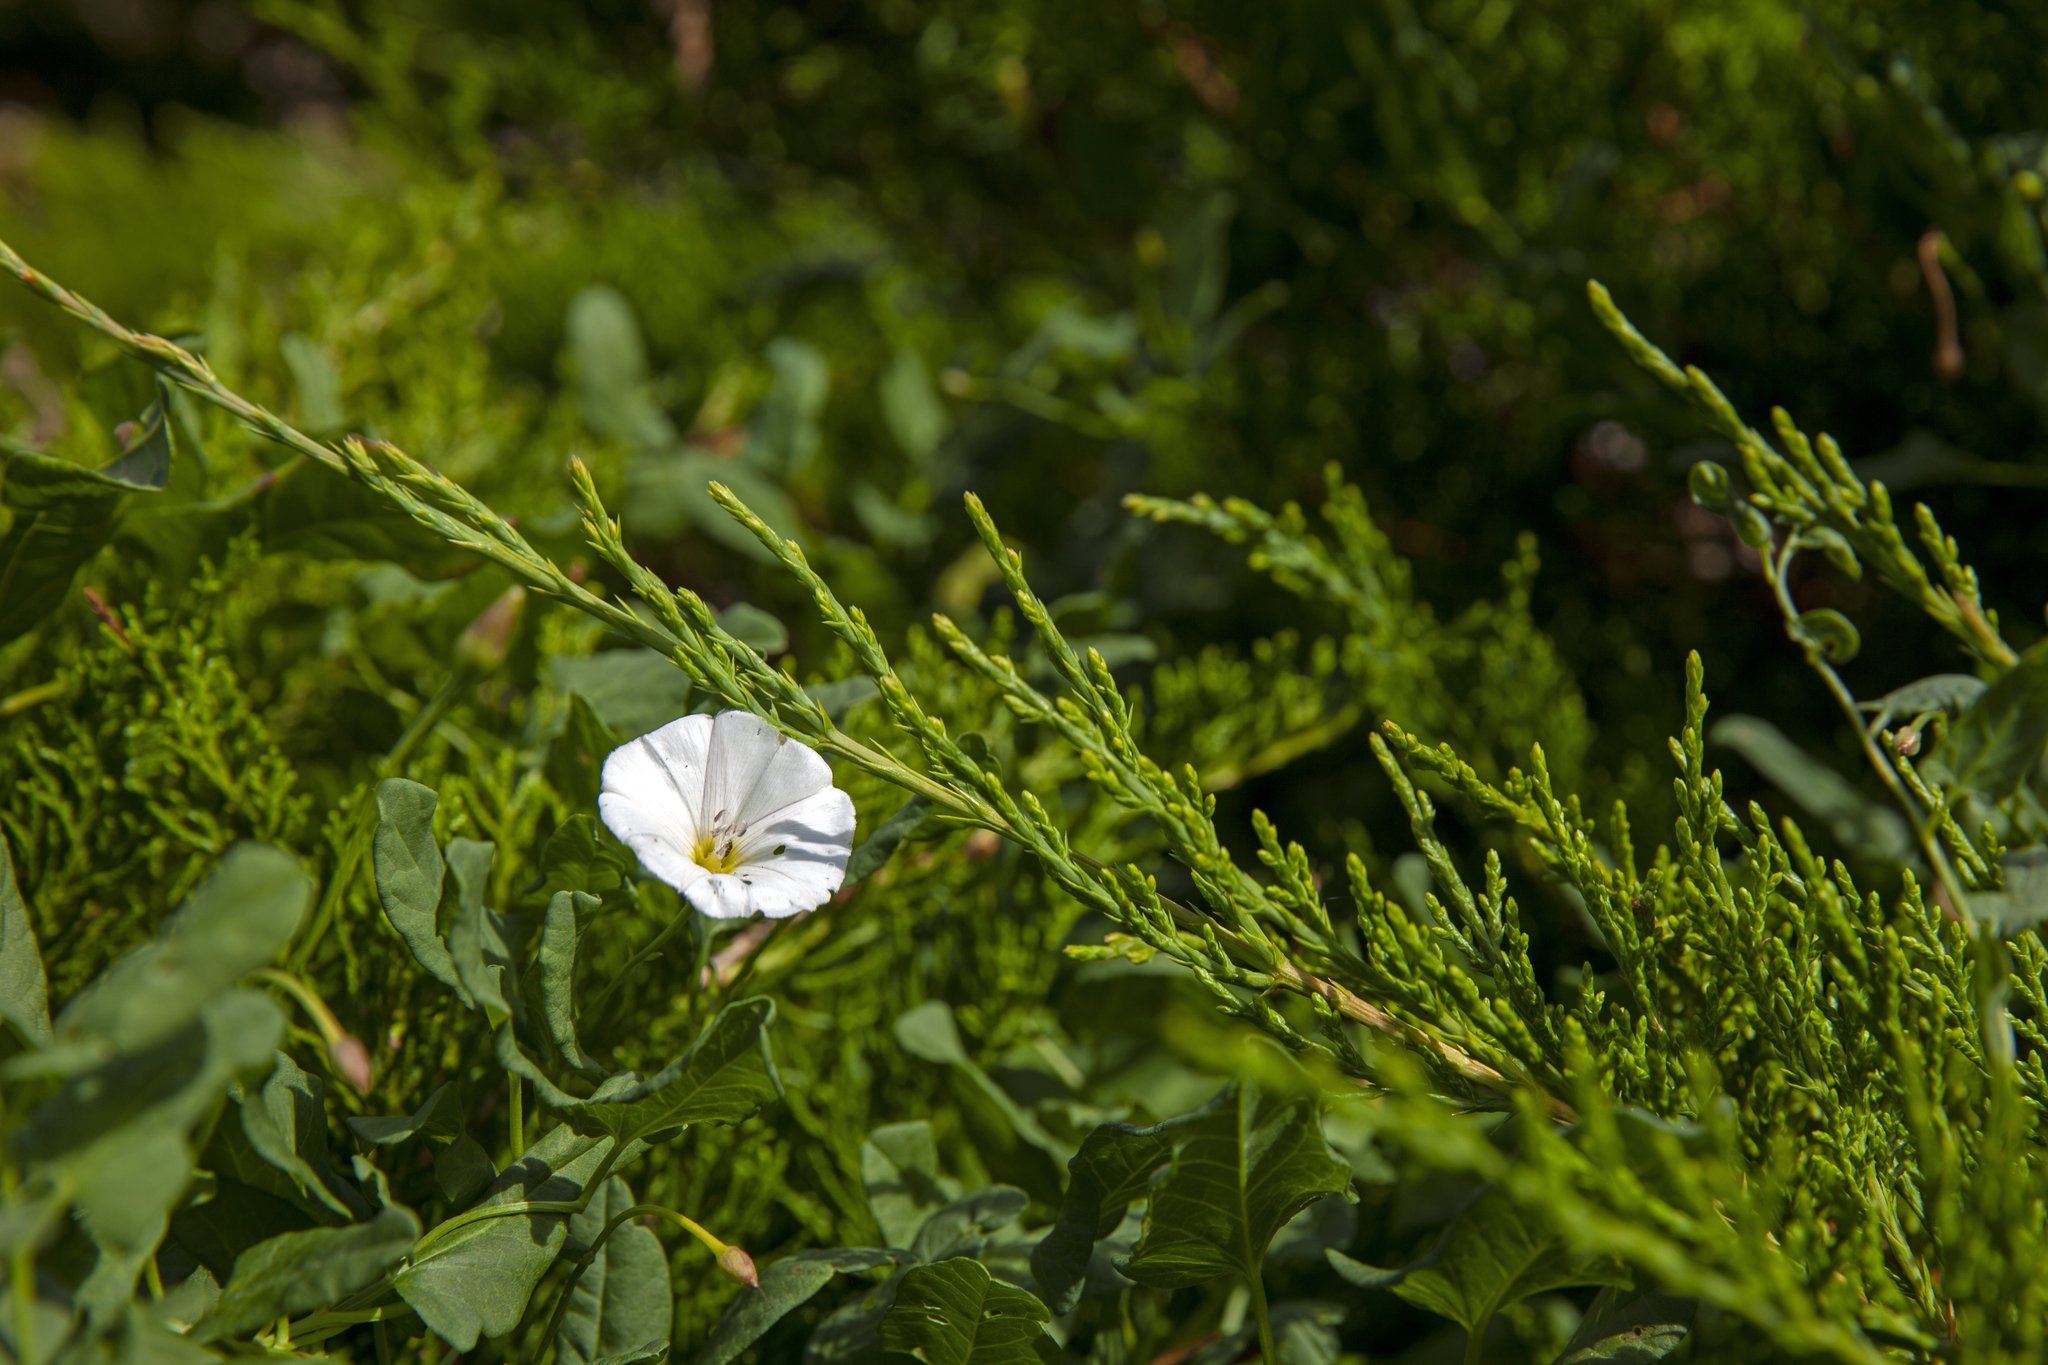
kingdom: Plantae
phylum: Tracheophyta
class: Magnoliopsida
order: Solanales
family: Convolvulaceae
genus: Convolvulus
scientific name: Convolvulus arvensis
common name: Field bindweed
